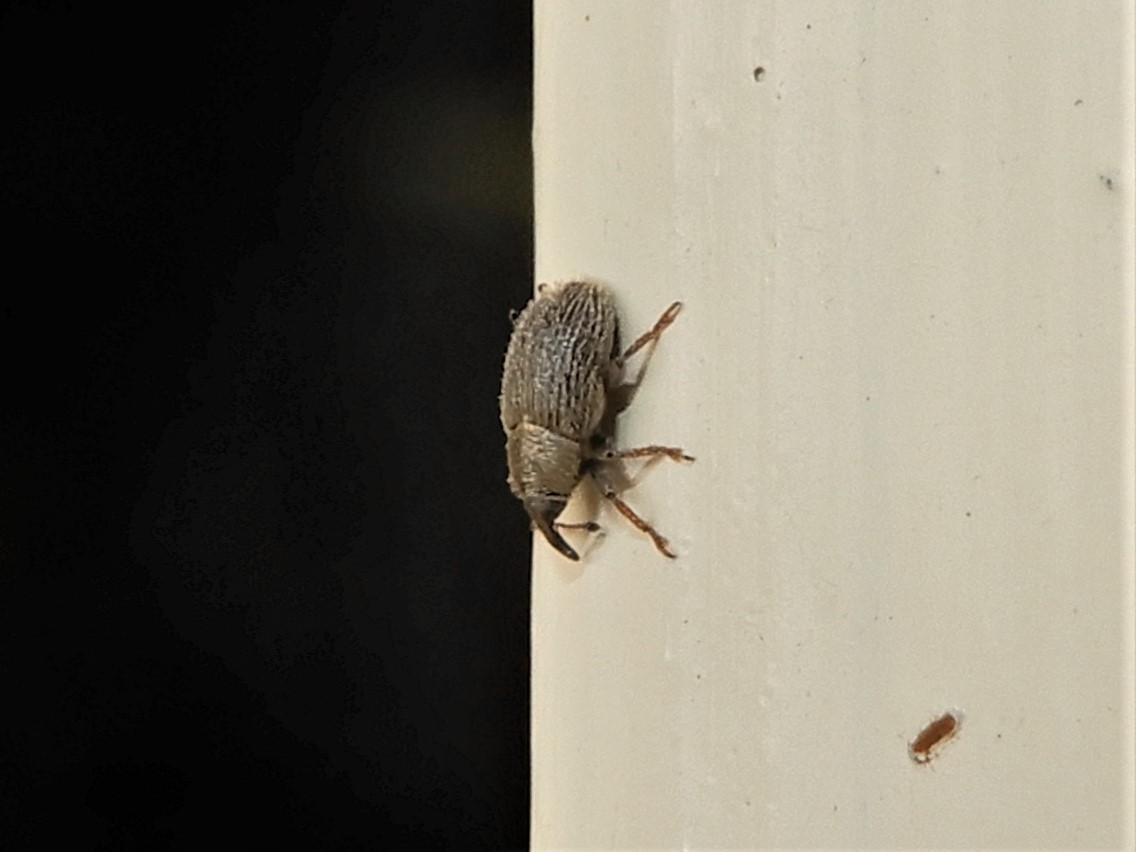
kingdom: Animalia
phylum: Arthropoda
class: Insecta
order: Coleoptera
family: Curculionidae
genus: Mecinus
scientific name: Mecinus pascuorum
